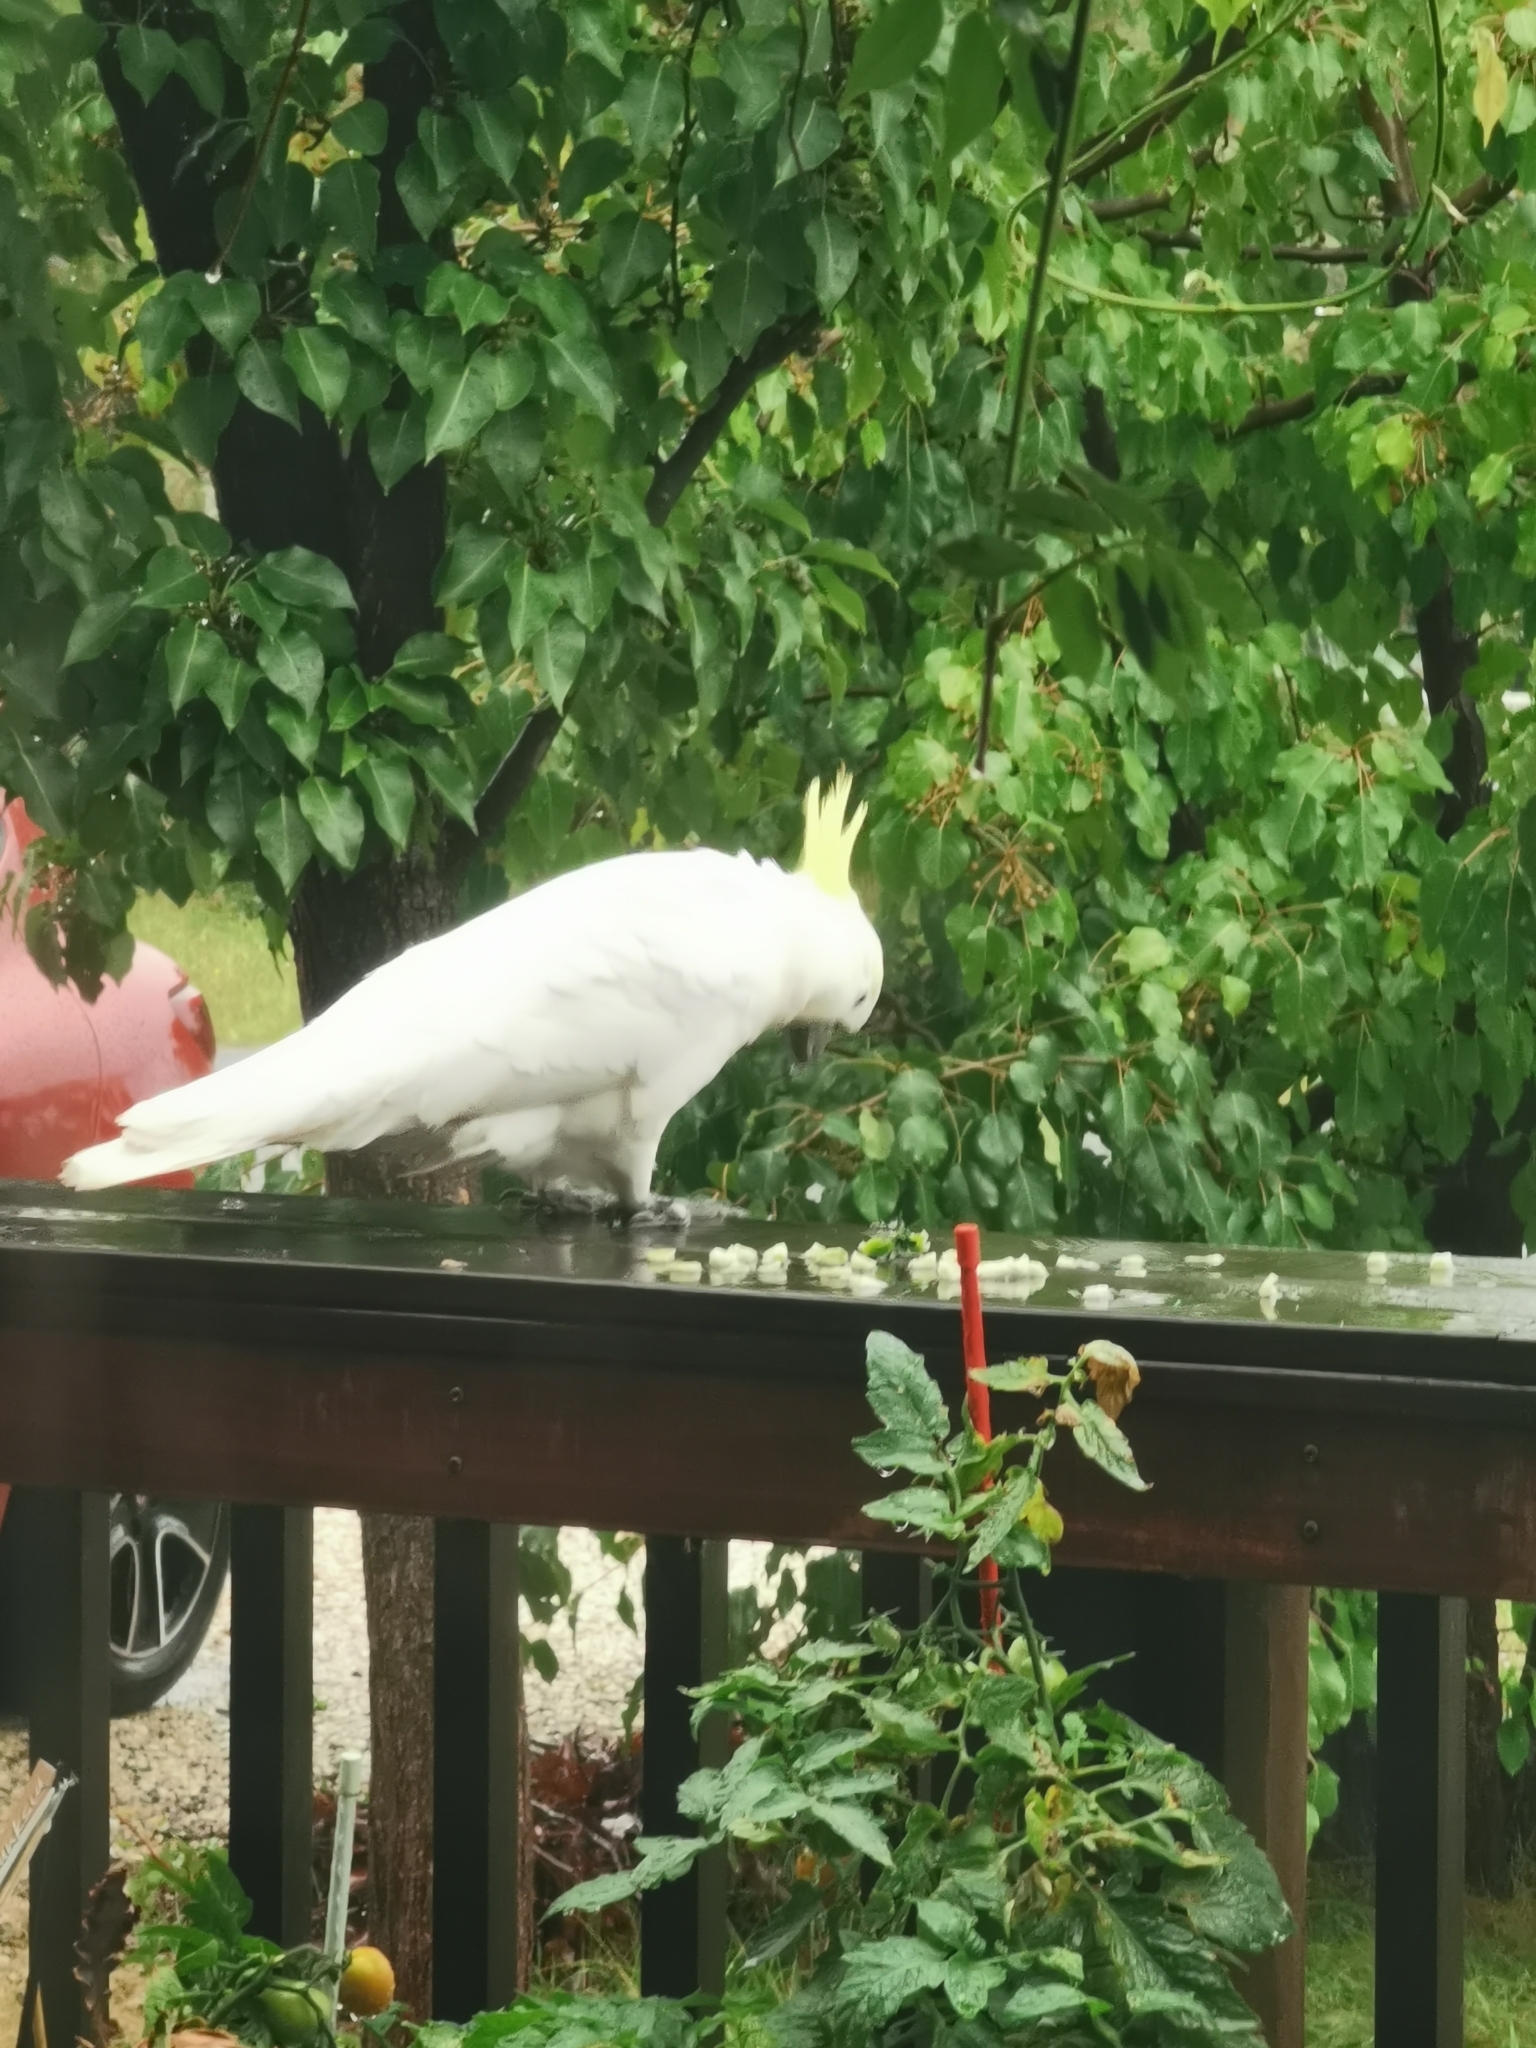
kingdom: Animalia
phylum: Chordata
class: Aves
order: Psittaciformes
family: Psittacidae
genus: Cacatua
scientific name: Cacatua galerita
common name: Sulphur-crested cockatoo
